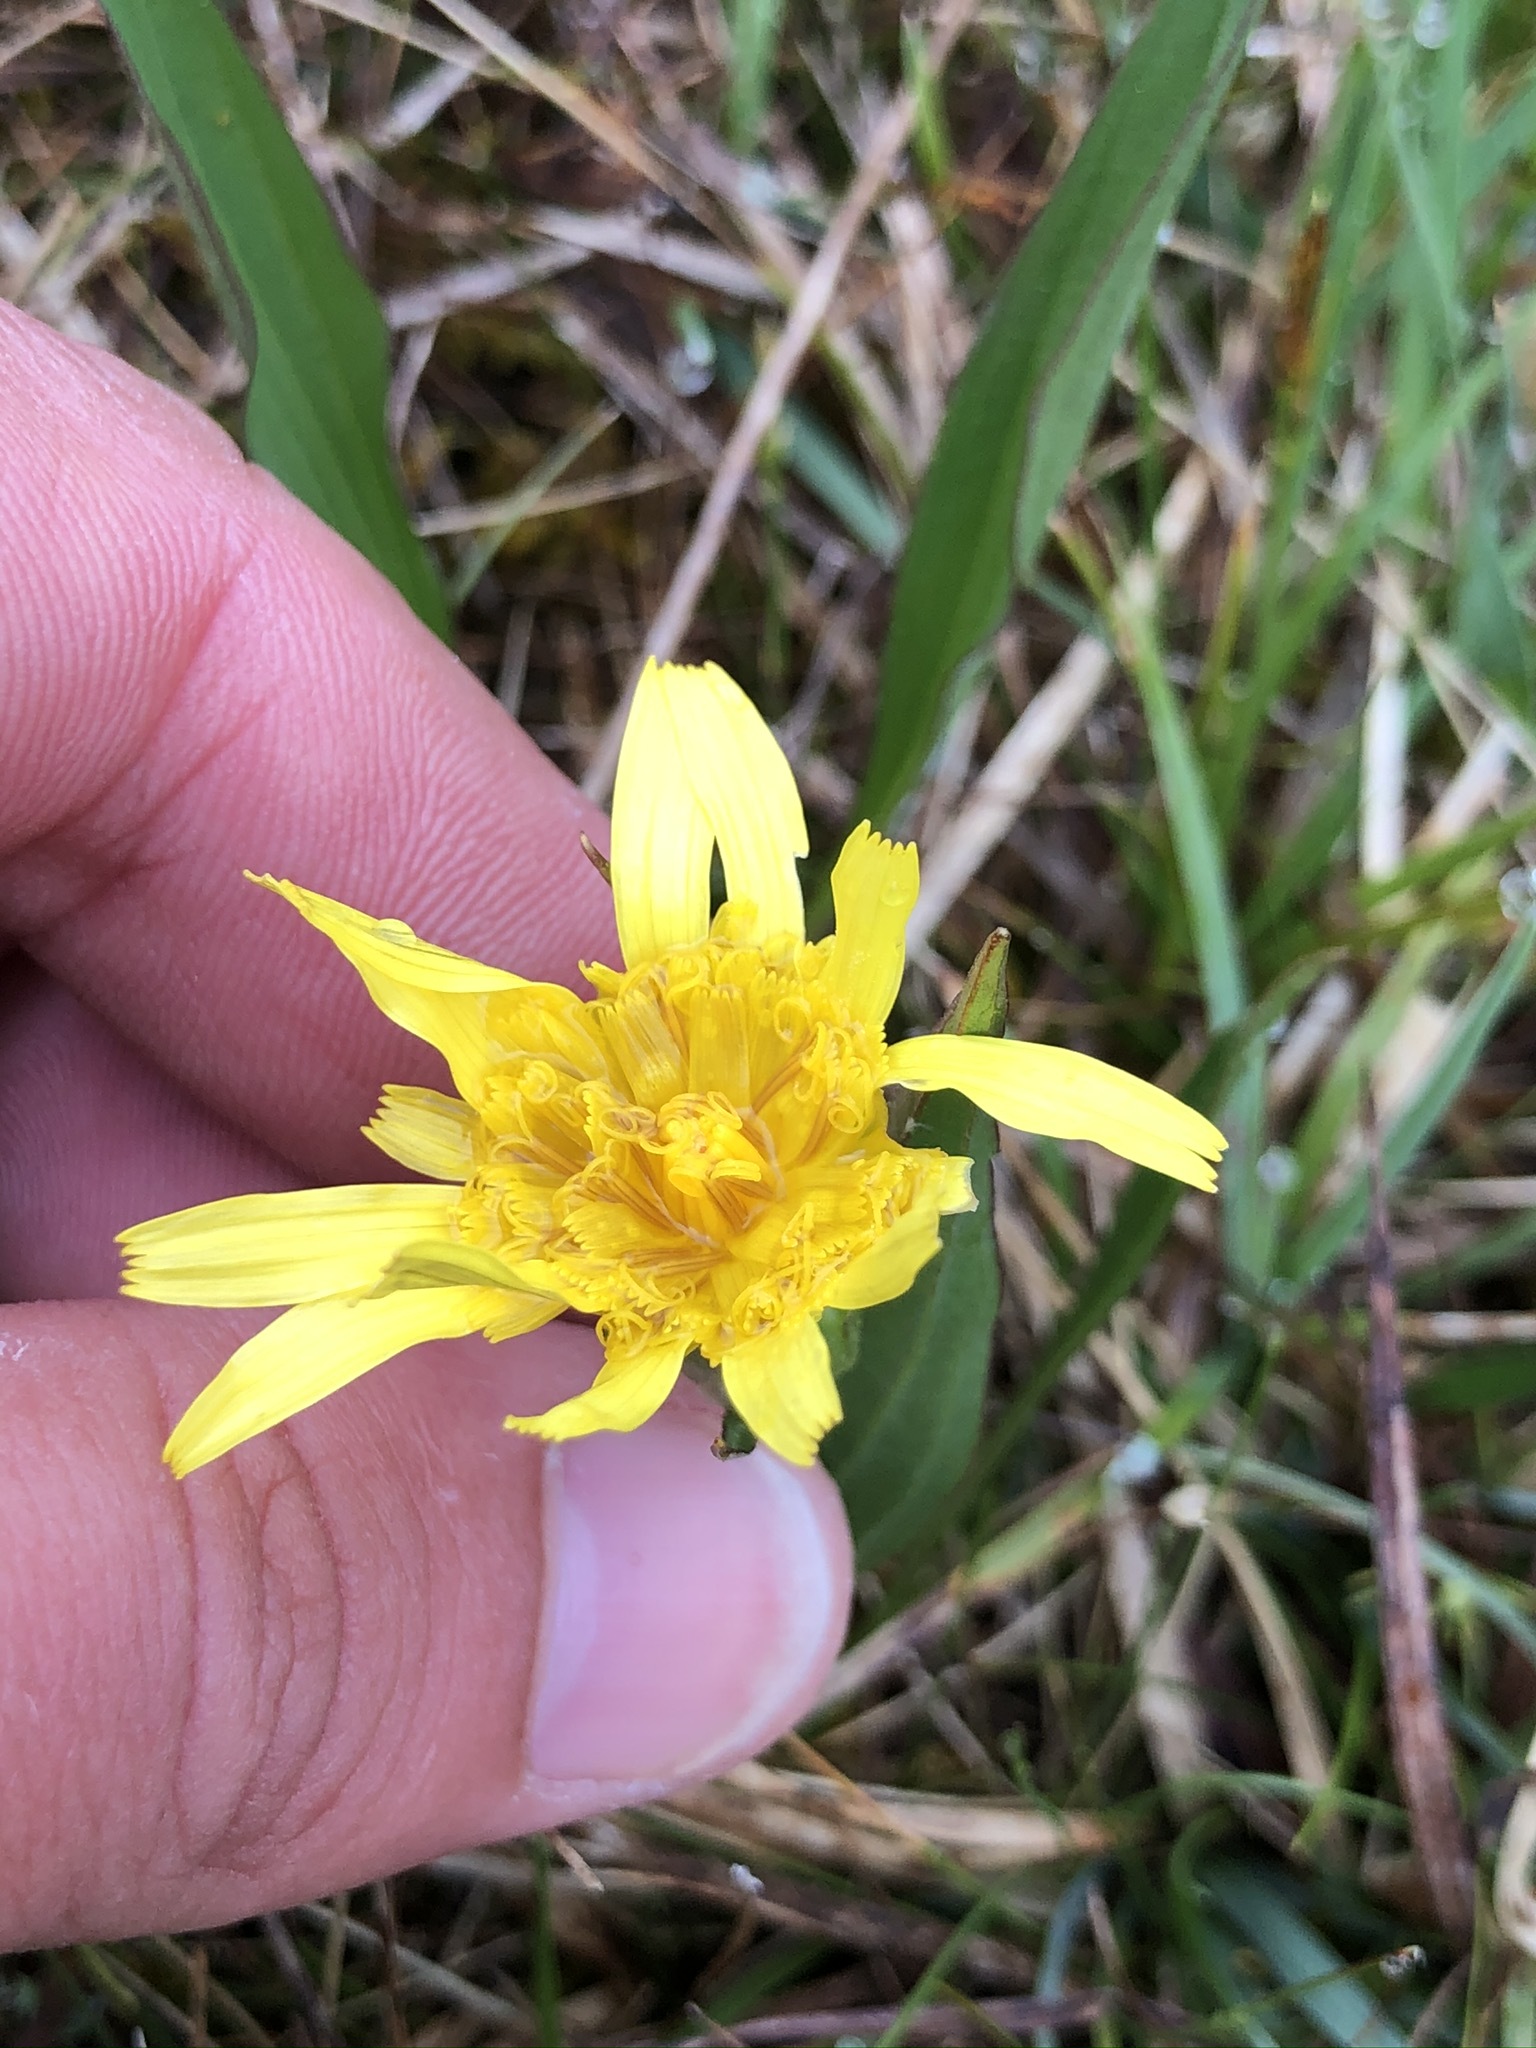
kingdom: Plantae
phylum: Tracheophyta
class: Magnoliopsida
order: Asterales
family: Asteraceae
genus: Scorzonera
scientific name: Scorzonera humilis
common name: Viper's-grass
